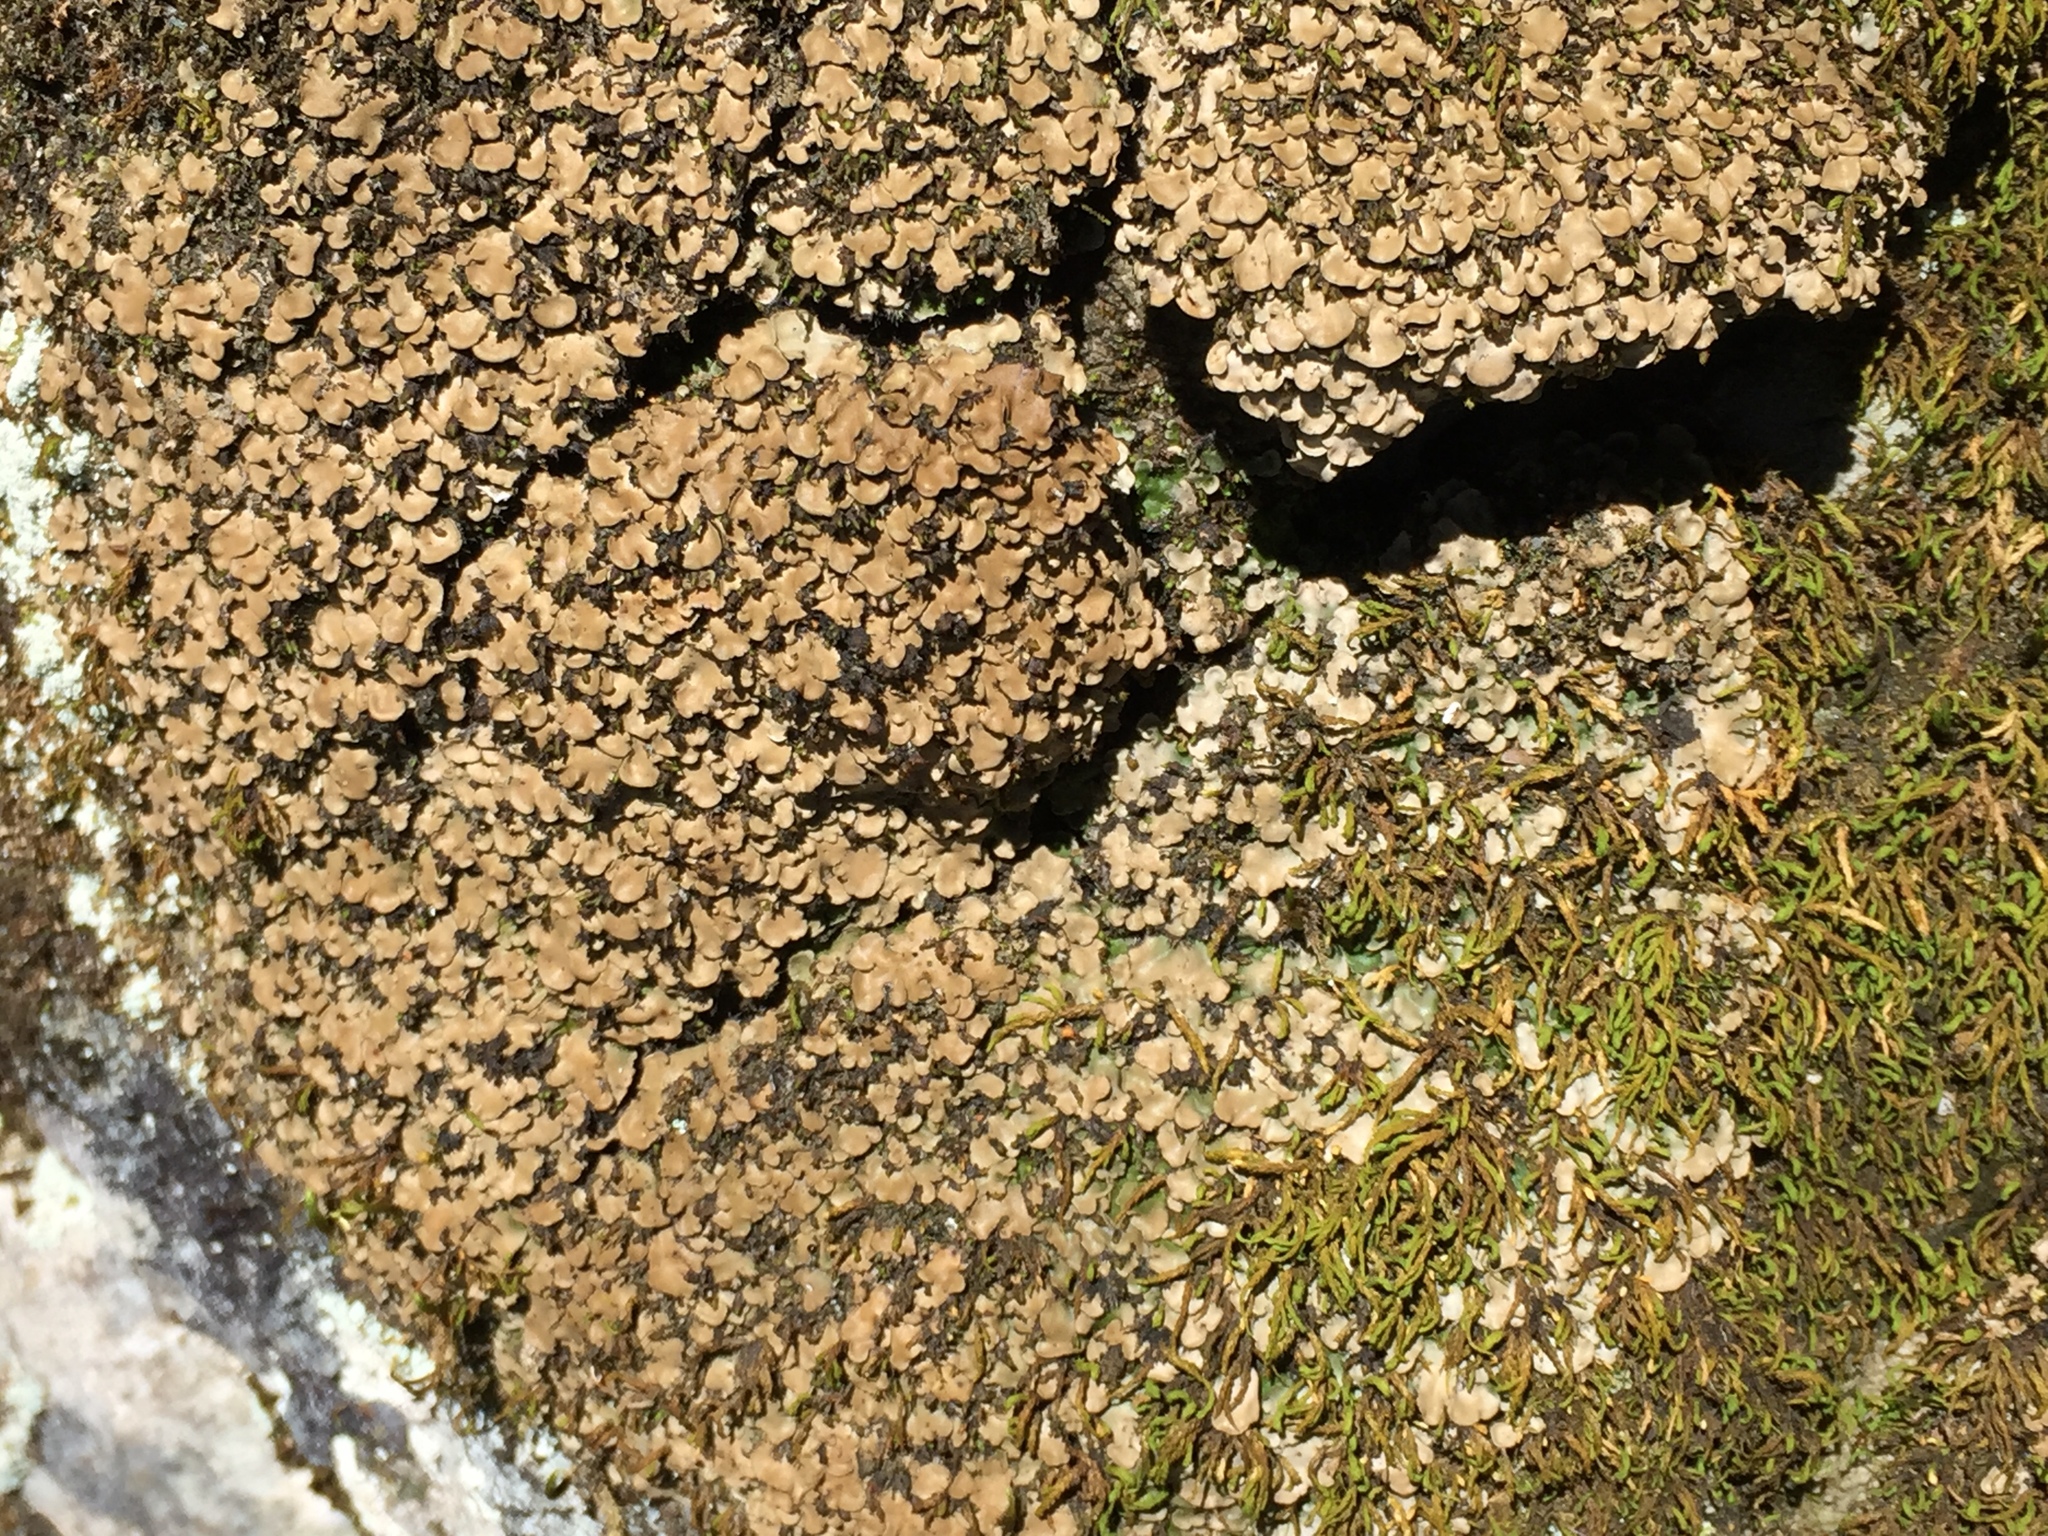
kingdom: Fungi
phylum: Ascomycota
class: Eurotiomycetes
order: Verrucariales
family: Verrucariaceae
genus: Placidium
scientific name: Placidium arboreum
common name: Tree stipplescale
